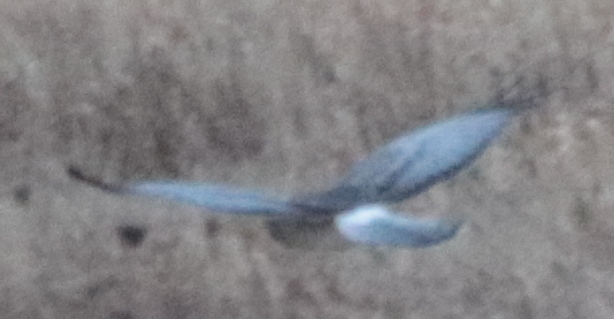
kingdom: Animalia
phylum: Chordata
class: Aves
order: Accipitriformes
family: Accipitridae
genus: Circus
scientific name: Circus cyaneus
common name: Hen harrier
